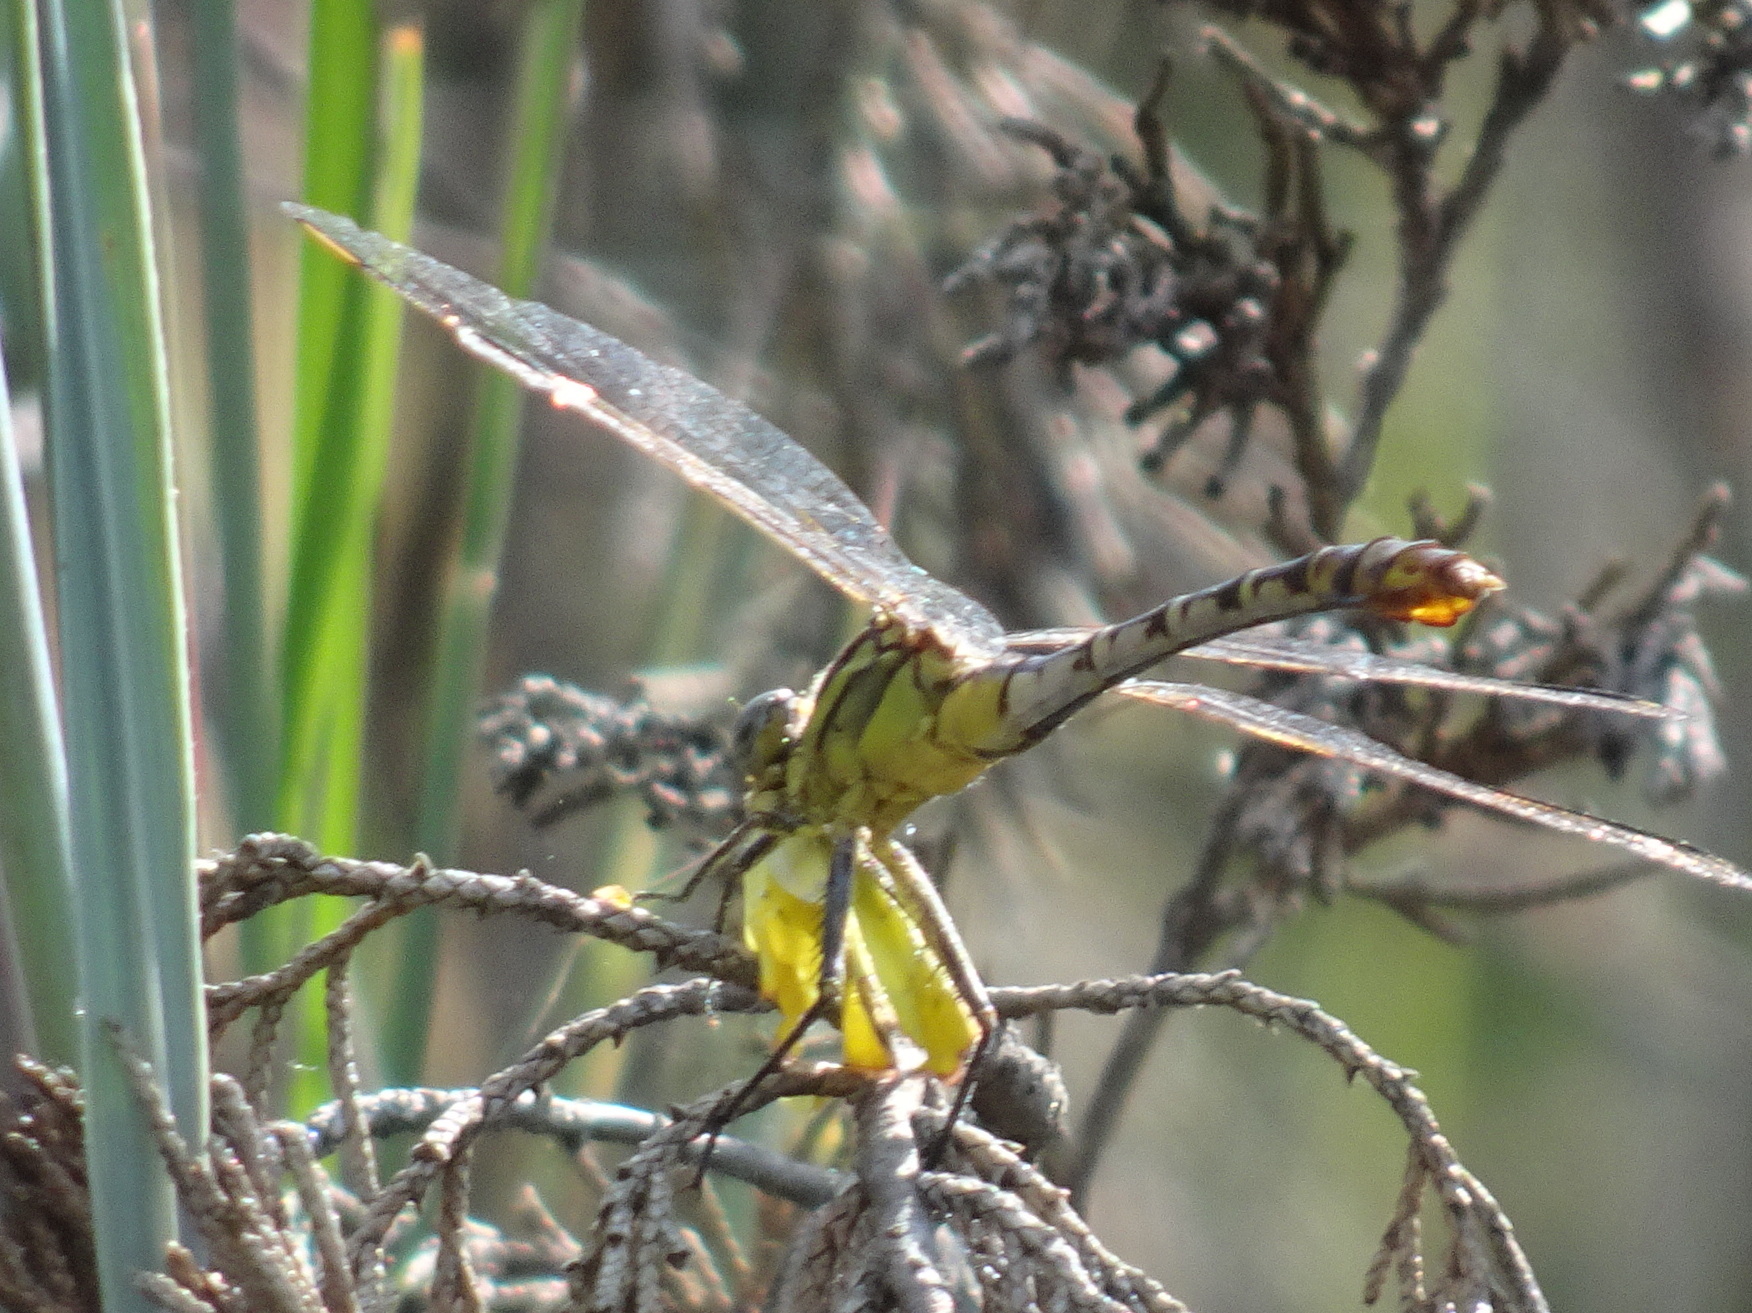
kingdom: Animalia
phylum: Arthropoda
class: Insecta
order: Odonata
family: Gomphidae
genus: Dromogomphus
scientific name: Dromogomphus spoliatus
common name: Flag-tailed spinyleg
